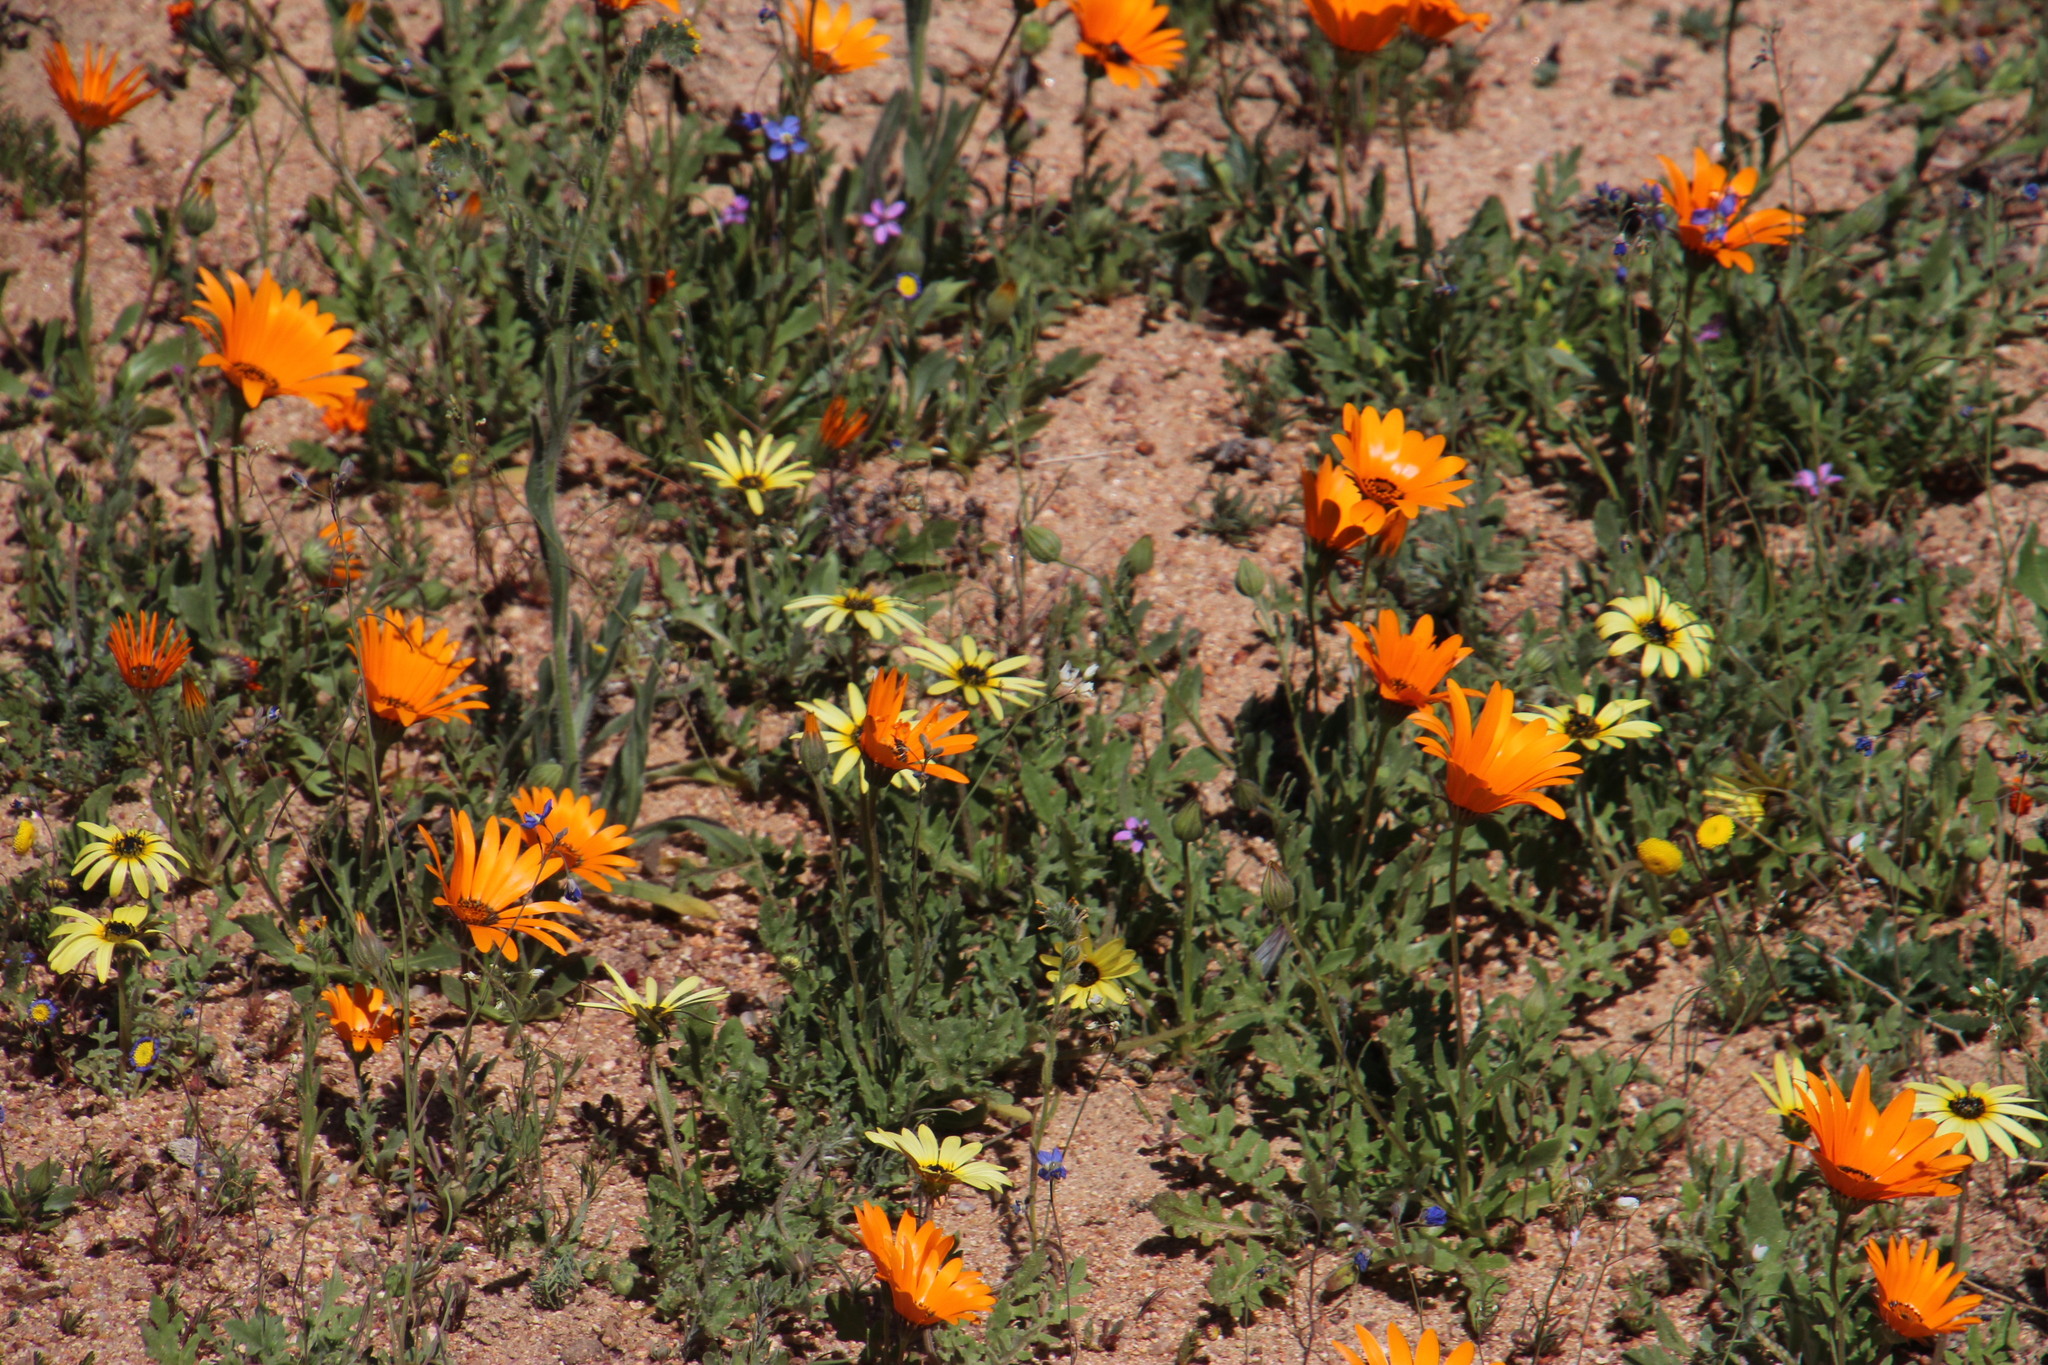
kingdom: Plantae
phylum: Tracheophyta
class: Magnoliopsida
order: Asterales
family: Asteraceae
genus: Arctotheca
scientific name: Arctotheca calendula
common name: Capeweed
